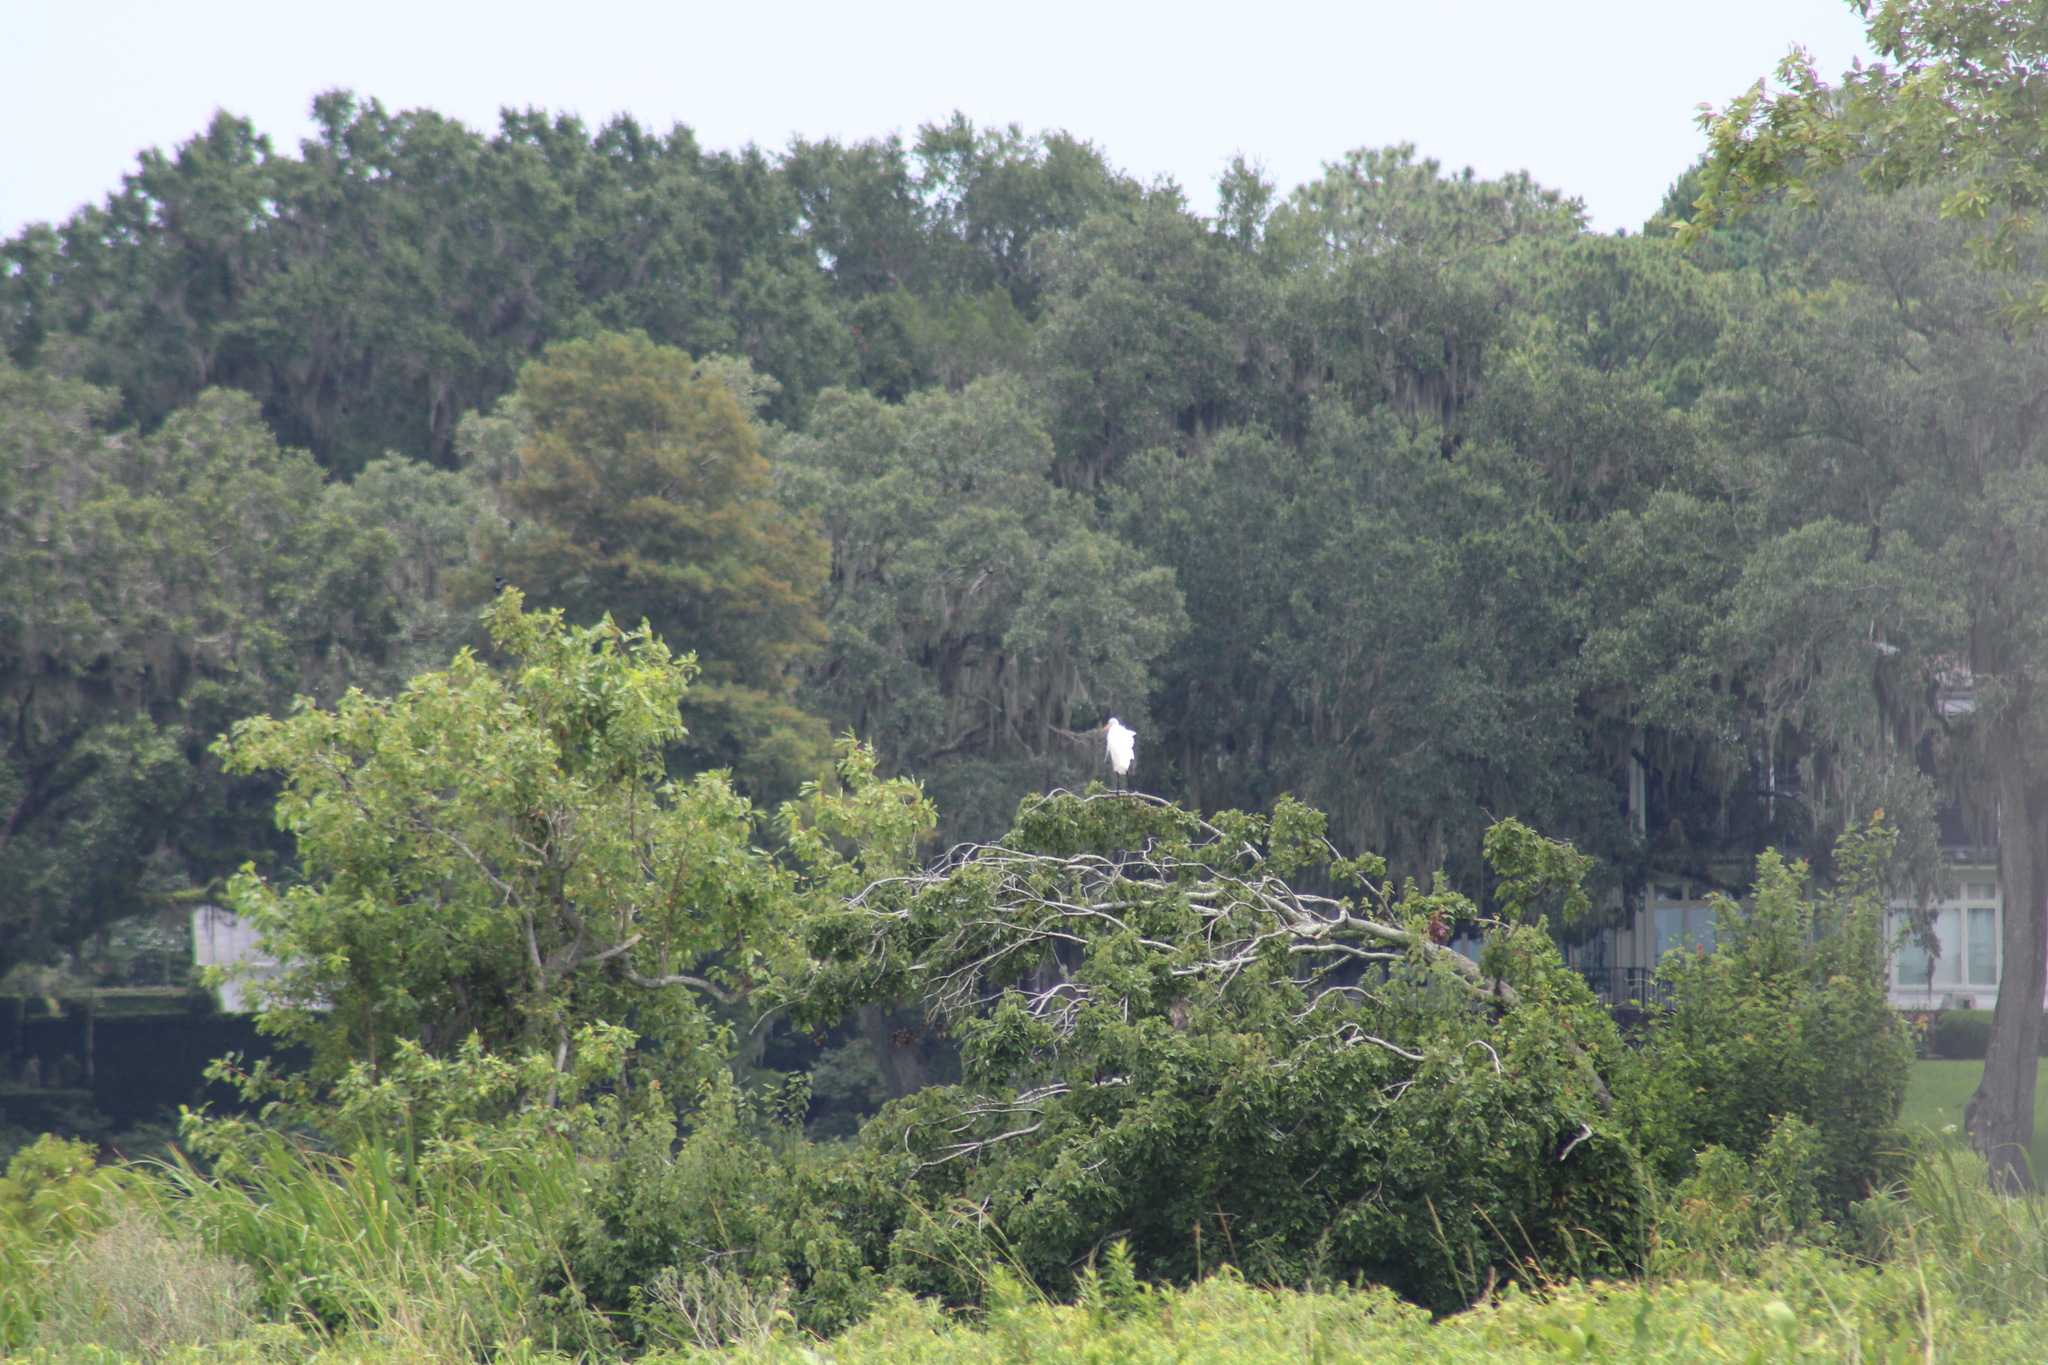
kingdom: Animalia
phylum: Chordata
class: Aves
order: Pelecaniformes
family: Ardeidae
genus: Ardea
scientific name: Ardea alba
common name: Great egret
